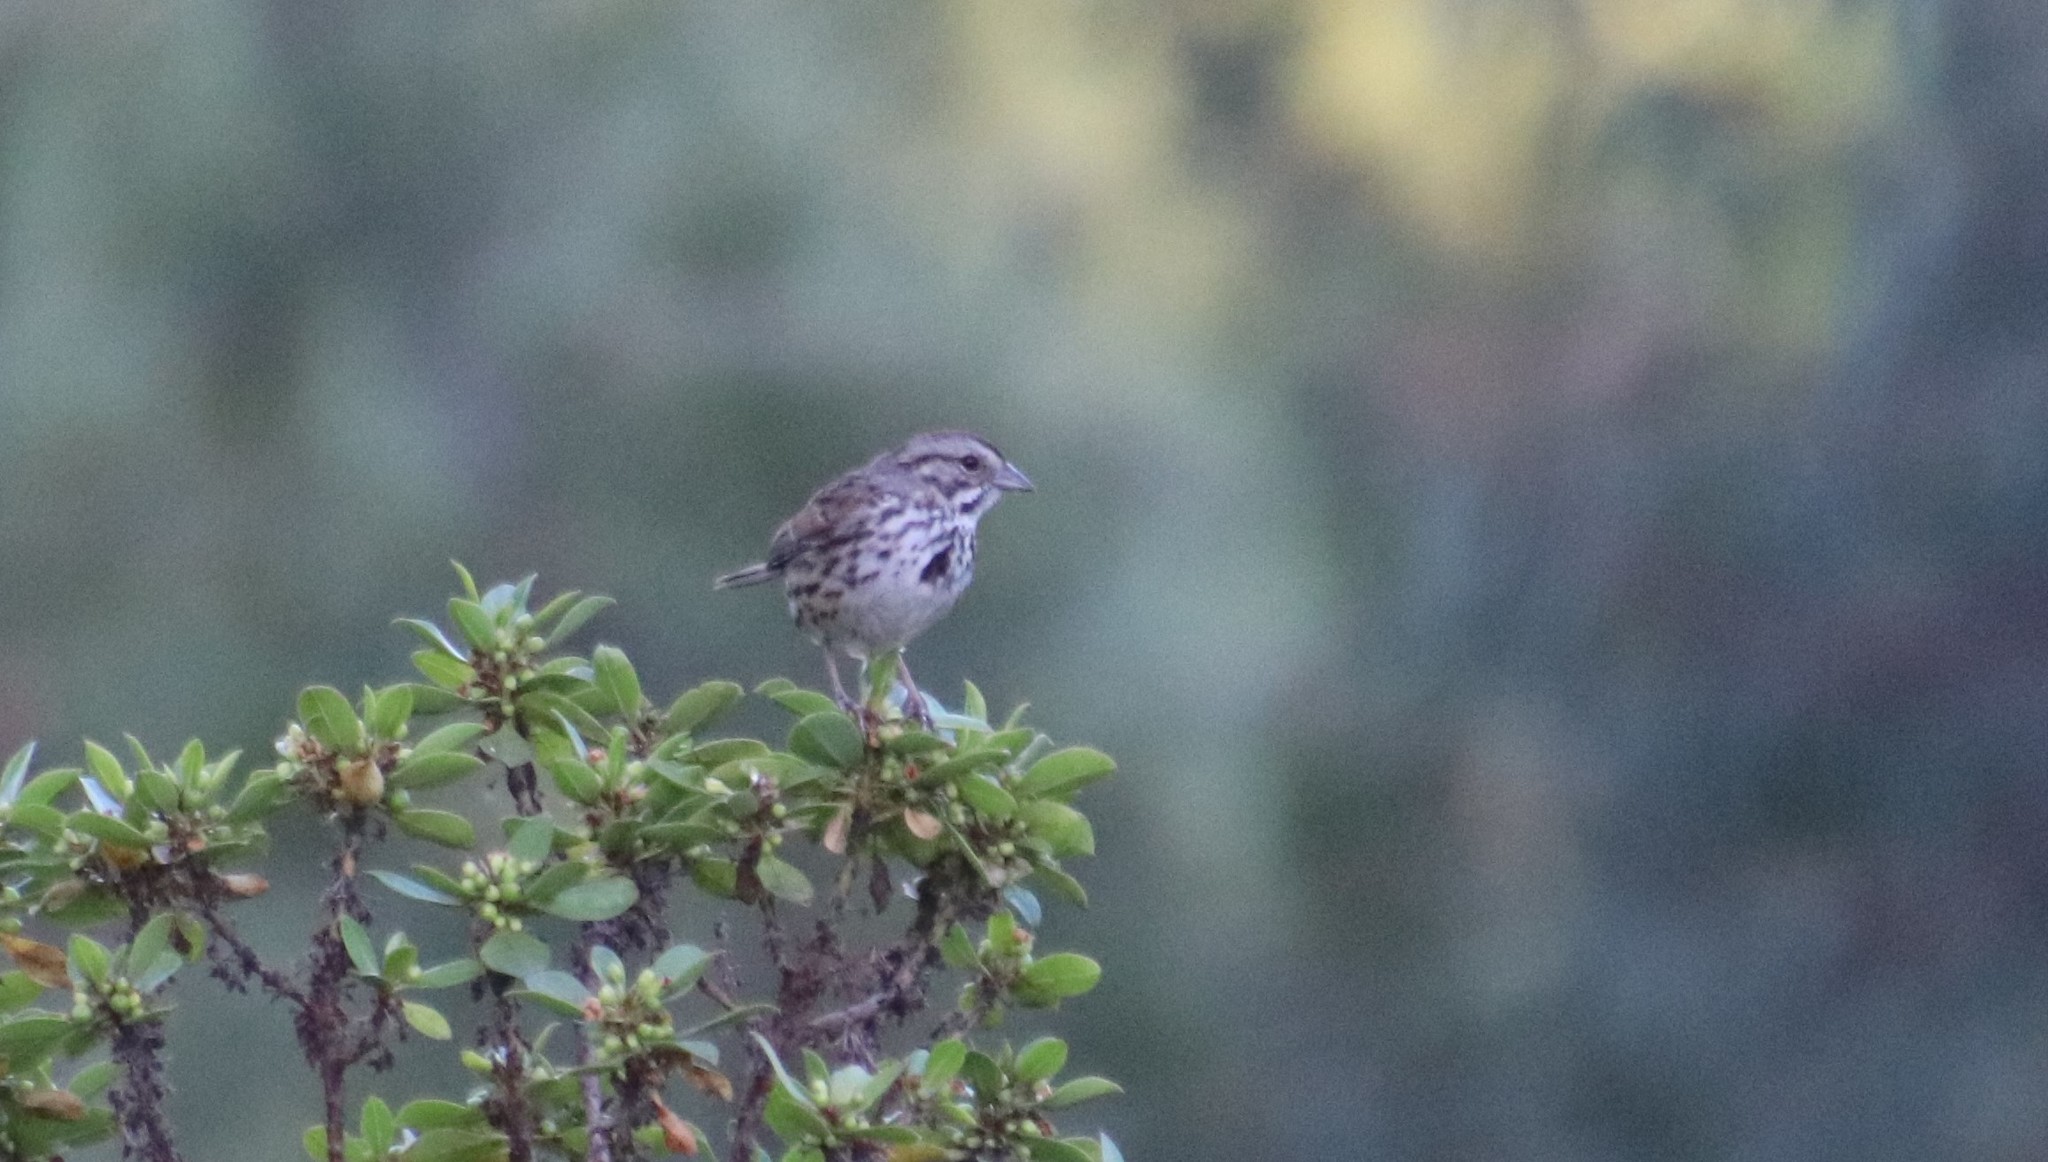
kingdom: Animalia
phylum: Chordata
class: Aves
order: Passeriformes
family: Passerellidae
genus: Melospiza
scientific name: Melospiza melodia
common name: Song sparrow
